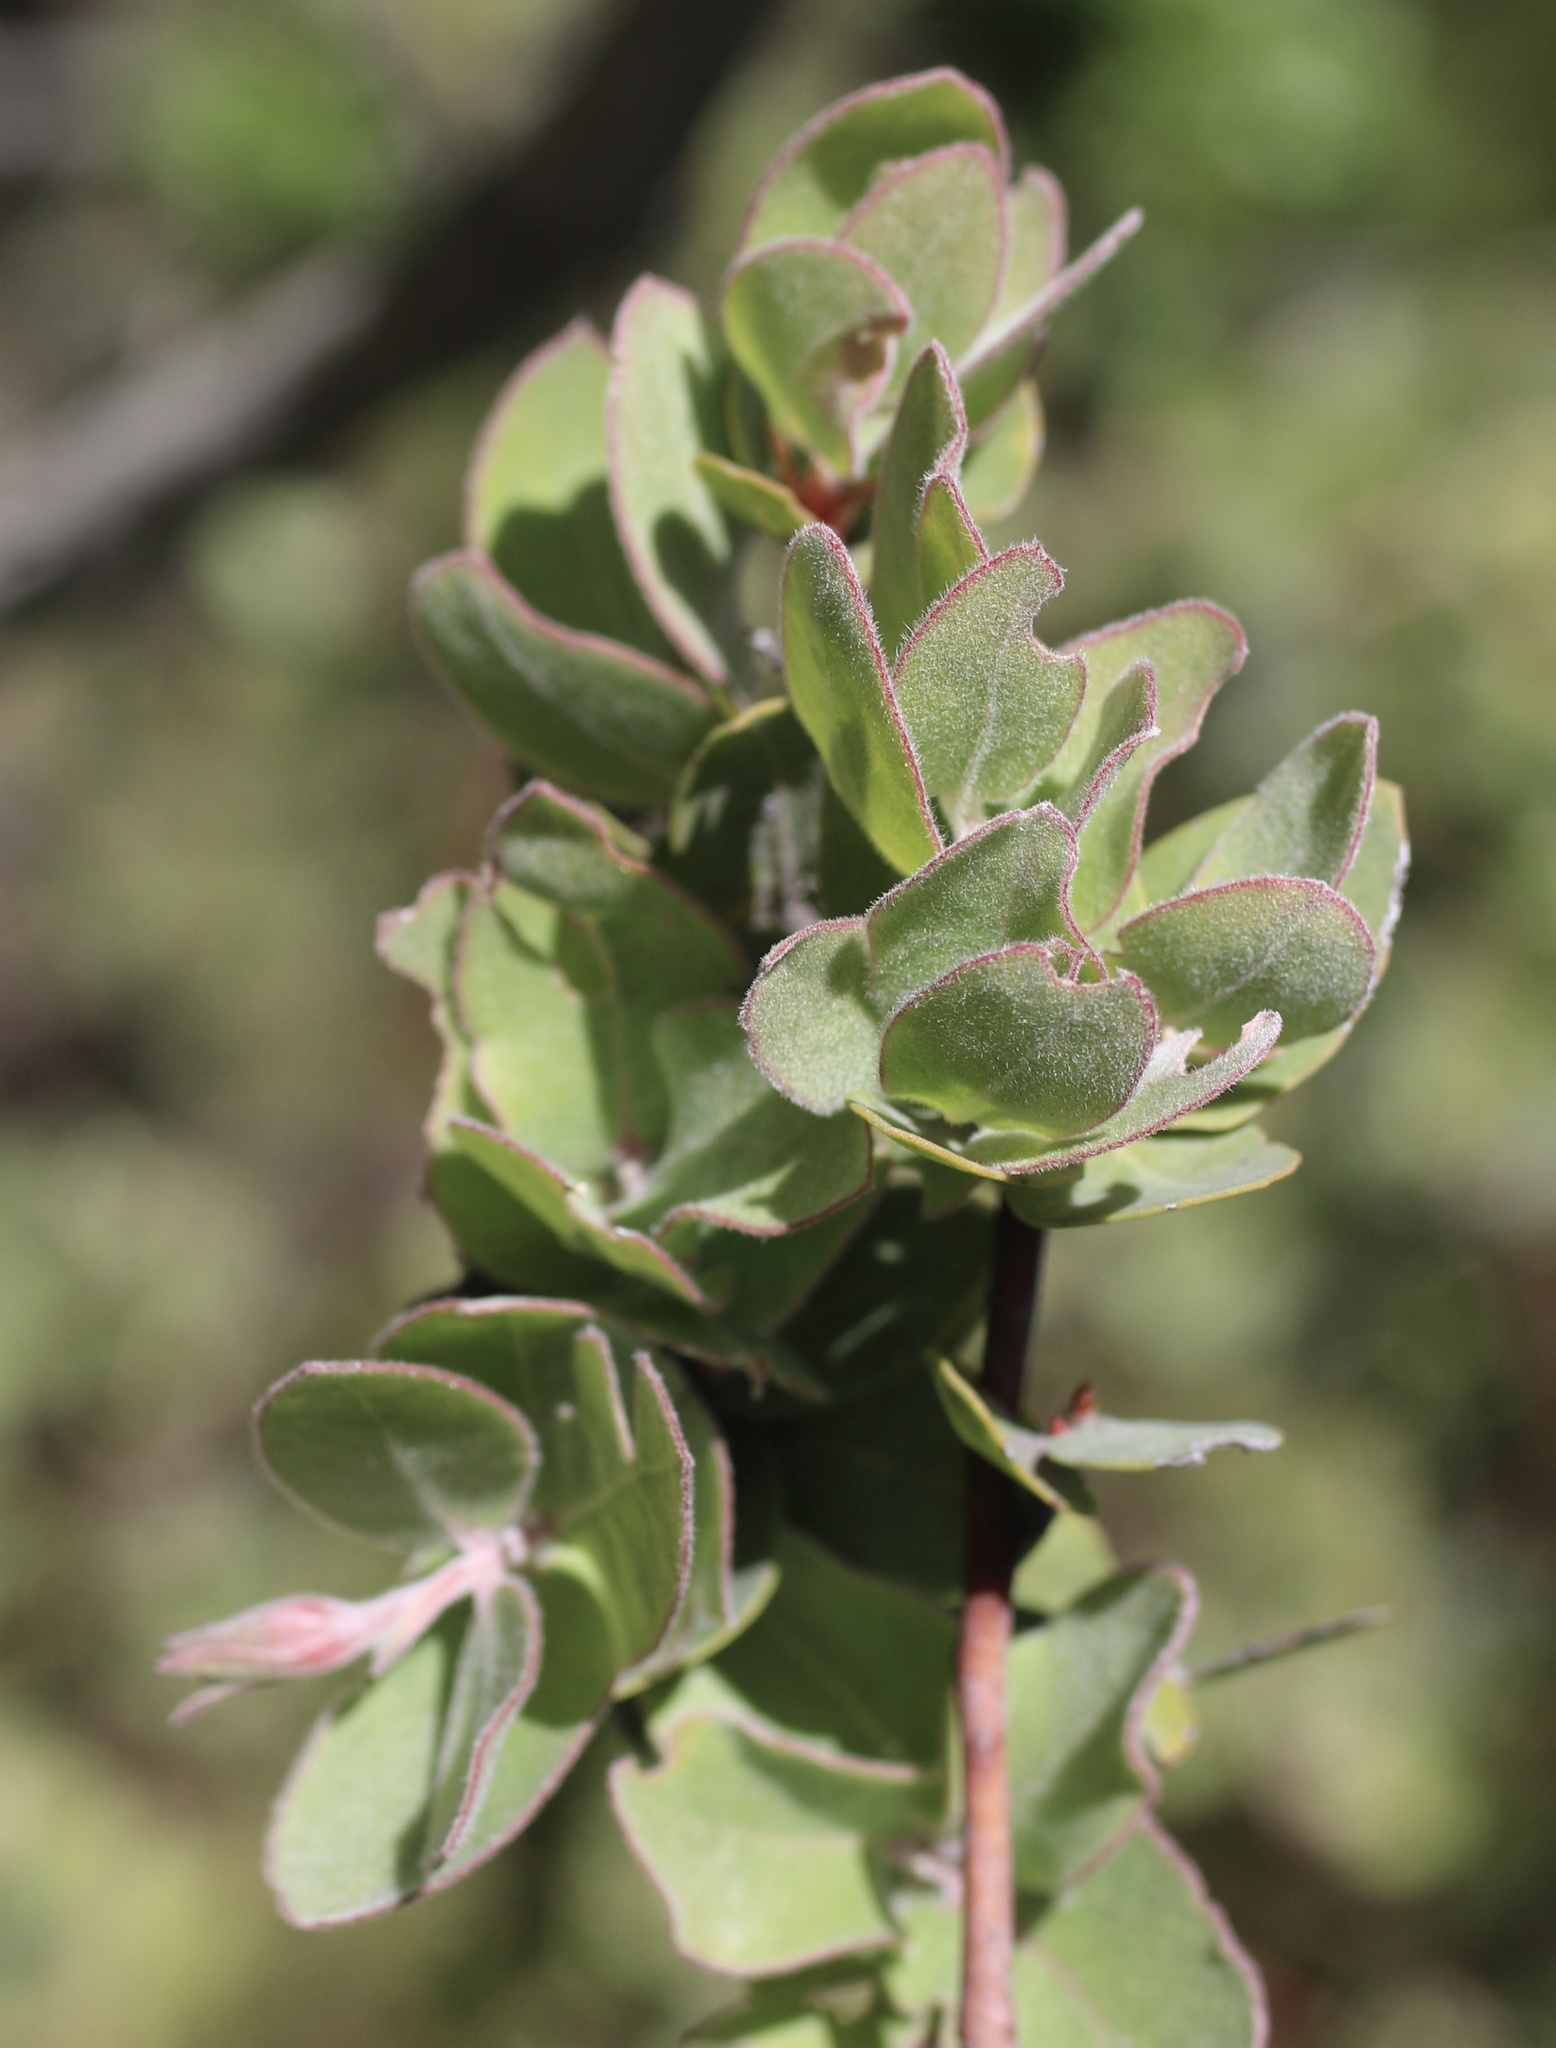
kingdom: Plantae
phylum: Tracheophyta
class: Magnoliopsida
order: Ericales
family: Ericaceae
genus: Arctostaphylos
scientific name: Arctostaphylos auriculata
